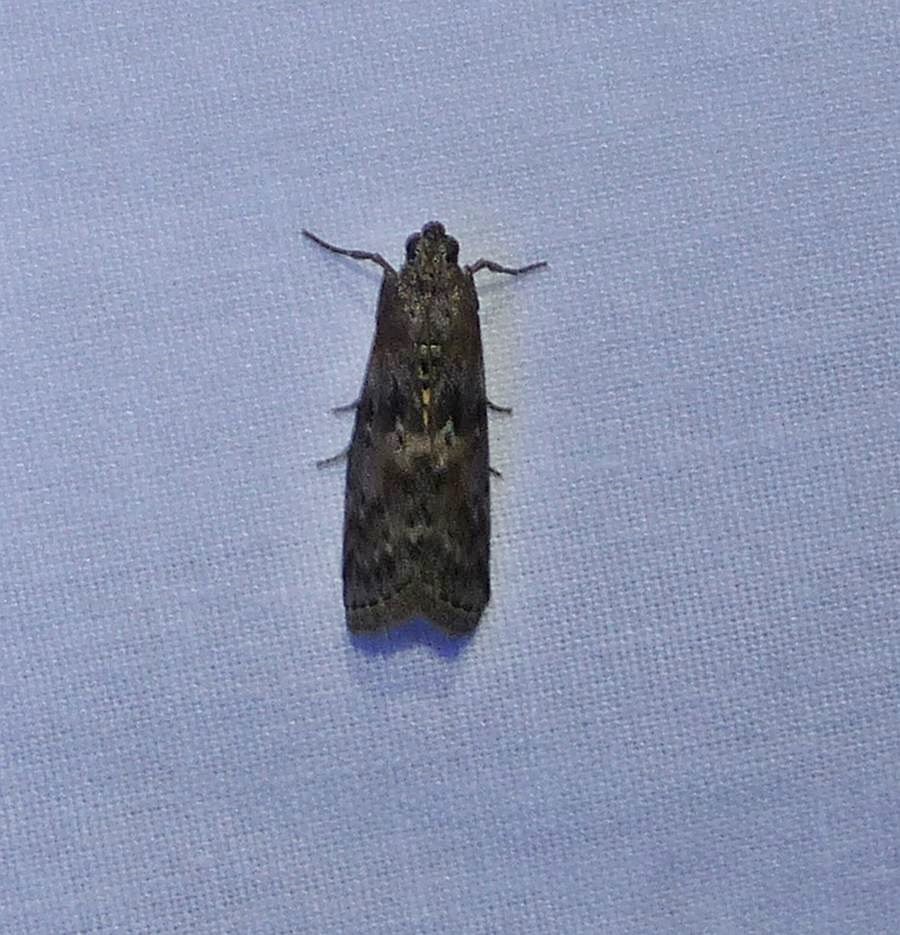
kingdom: Animalia
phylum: Arthropoda
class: Insecta
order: Lepidoptera
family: Pyralidae
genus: Sciota
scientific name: Sciota virgatella
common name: Black-spotted leafroller moth
